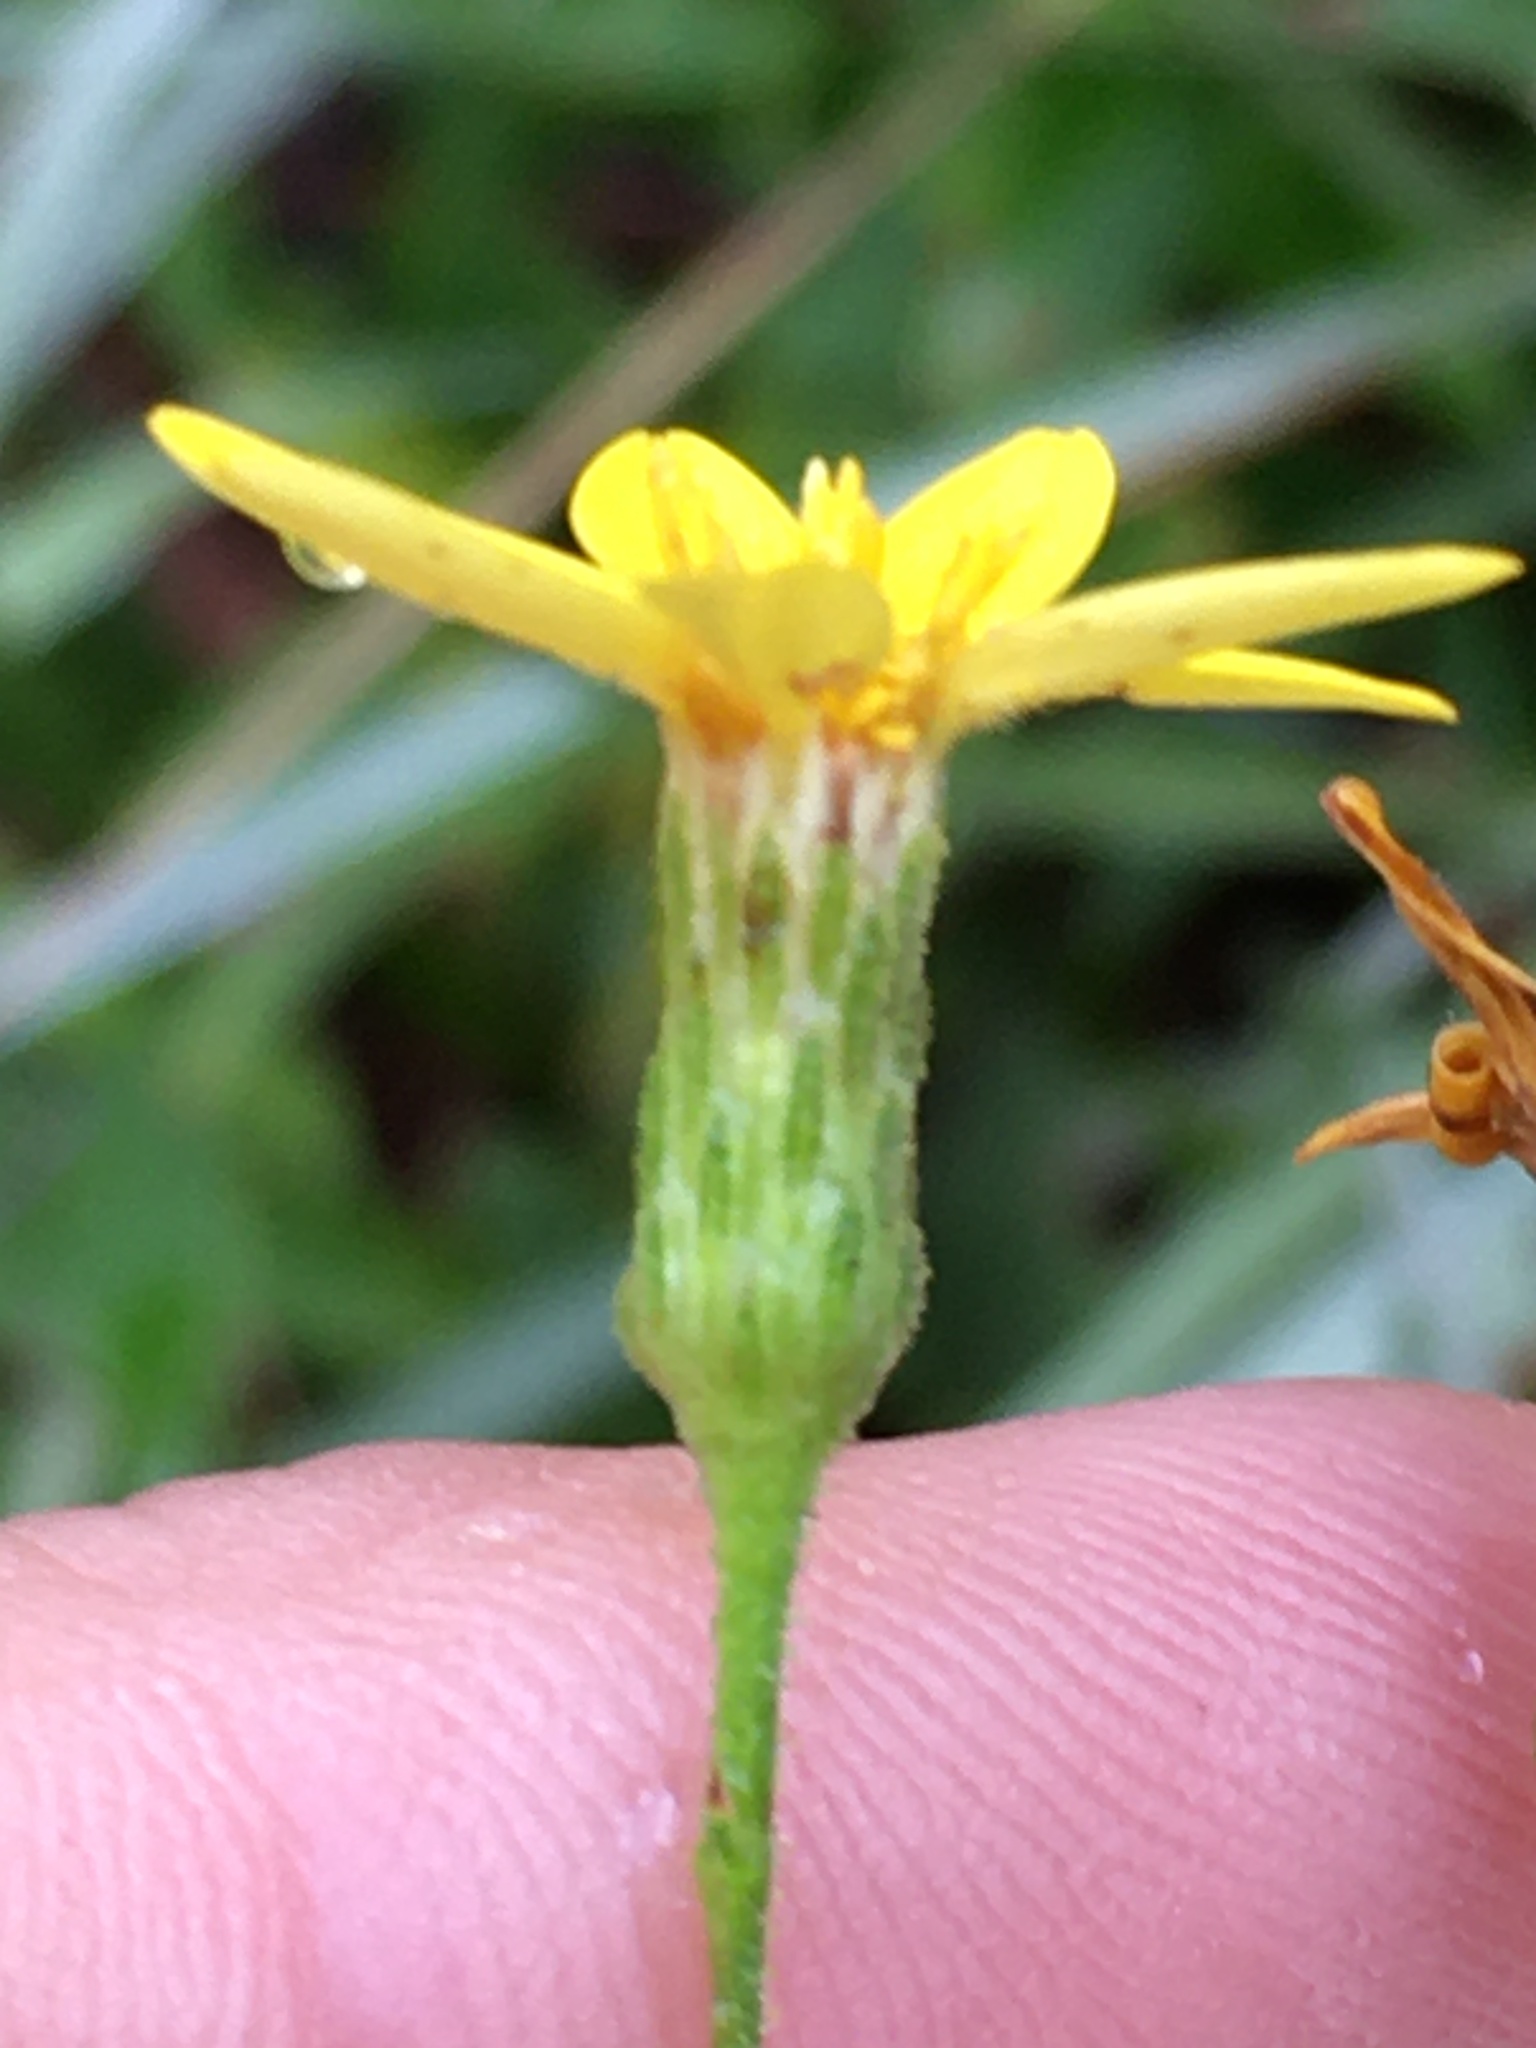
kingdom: Plantae
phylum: Tracheophyta
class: Magnoliopsida
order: Asterales
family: Asteraceae
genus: Pityopsis
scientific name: Pityopsis aspera
